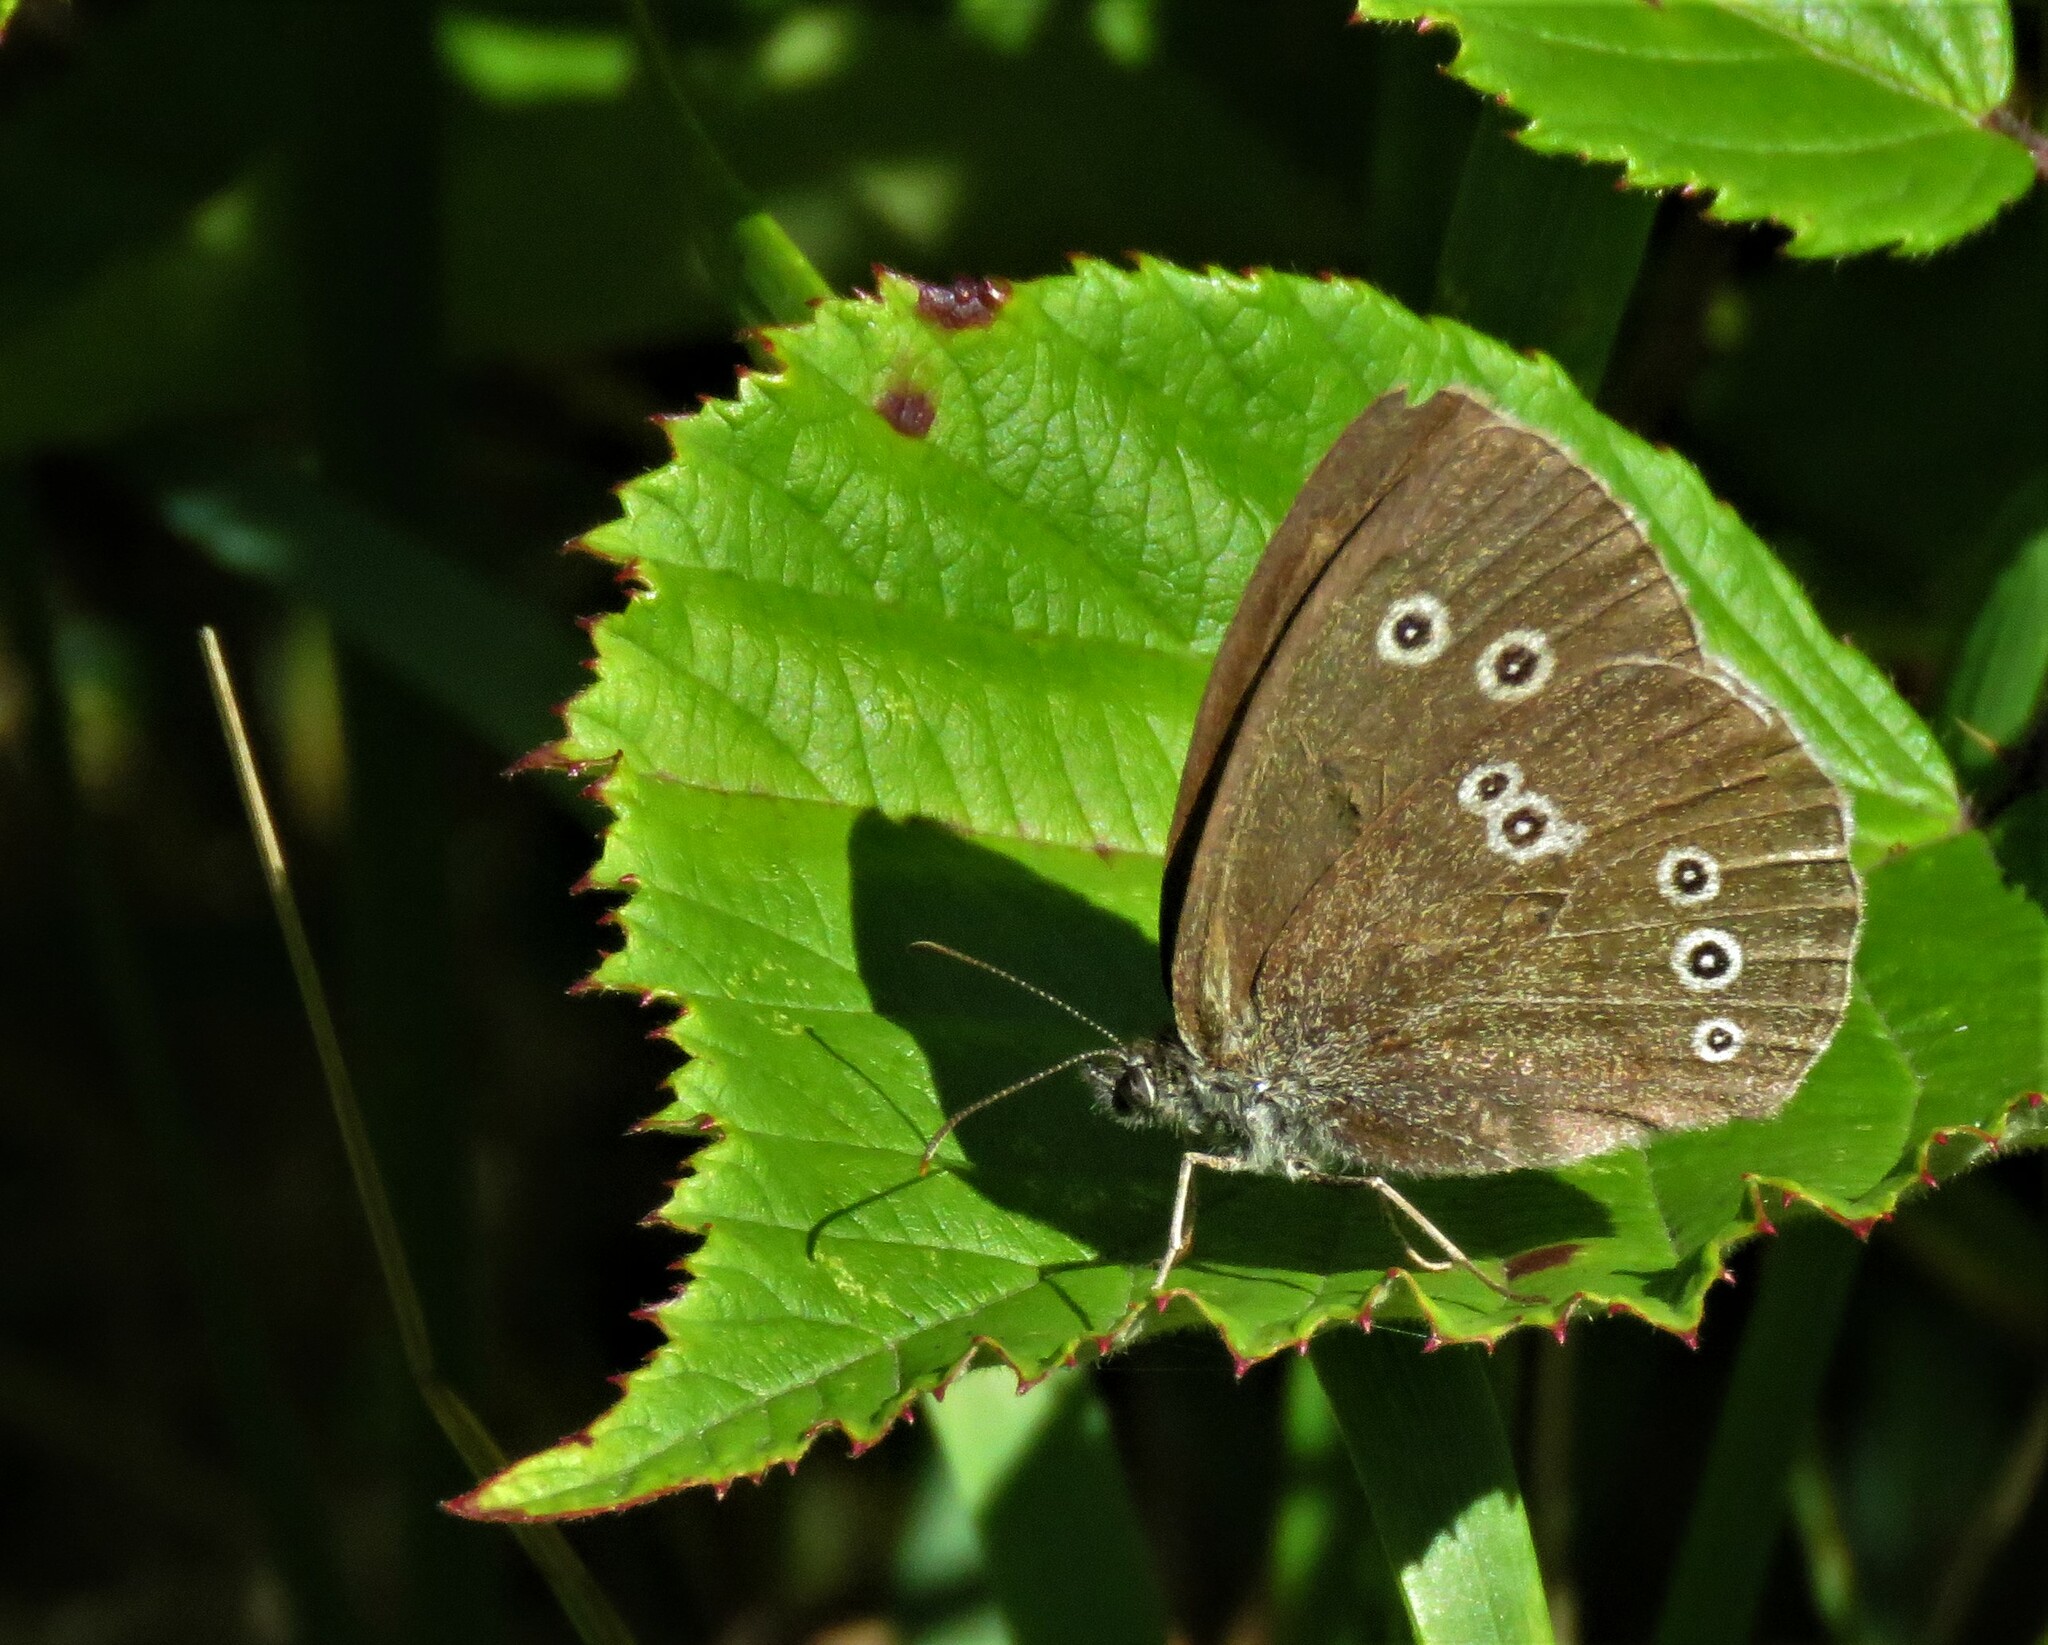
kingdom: Animalia
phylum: Arthropoda
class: Insecta
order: Lepidoptera
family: Nymphalidae
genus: Aphantopus
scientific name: Aphantopus hyperantus
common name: Ringlet
